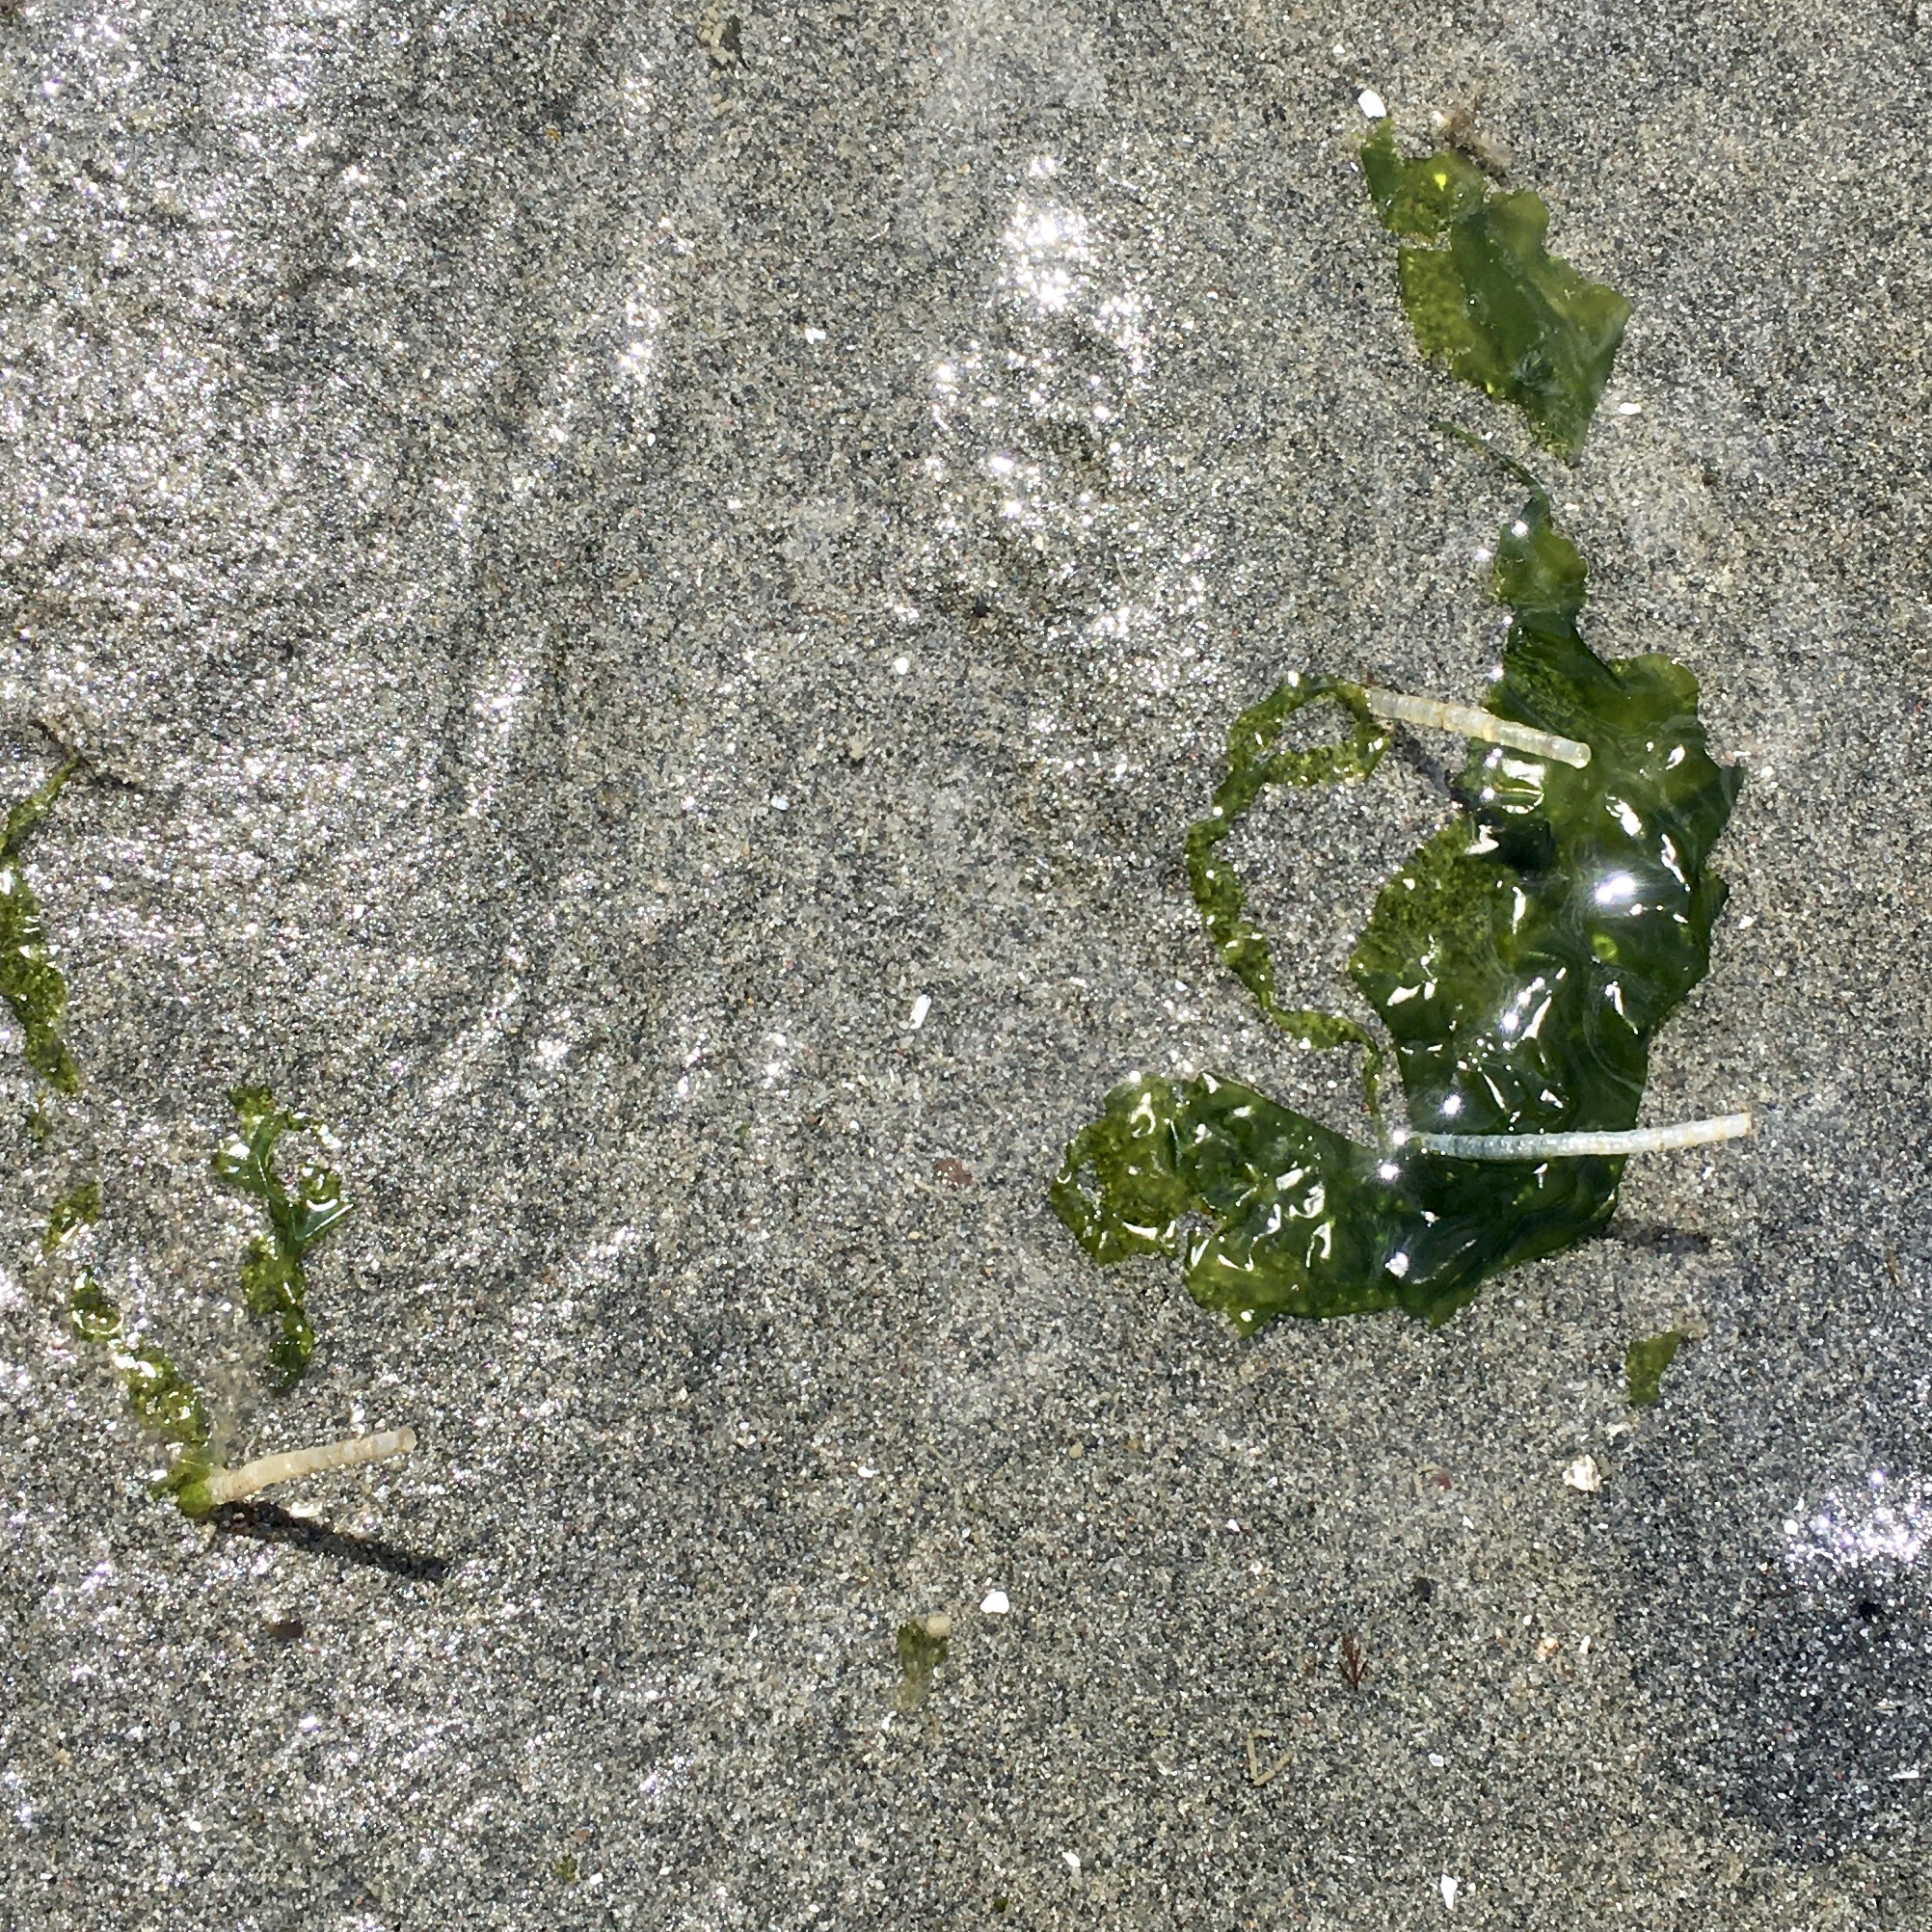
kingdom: Animalia
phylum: Annelida
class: Polychaeta
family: Chaetopteridae
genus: Spiochaetopterus
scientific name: Spiochaetopterus costarum
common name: Glassy tubeworm
